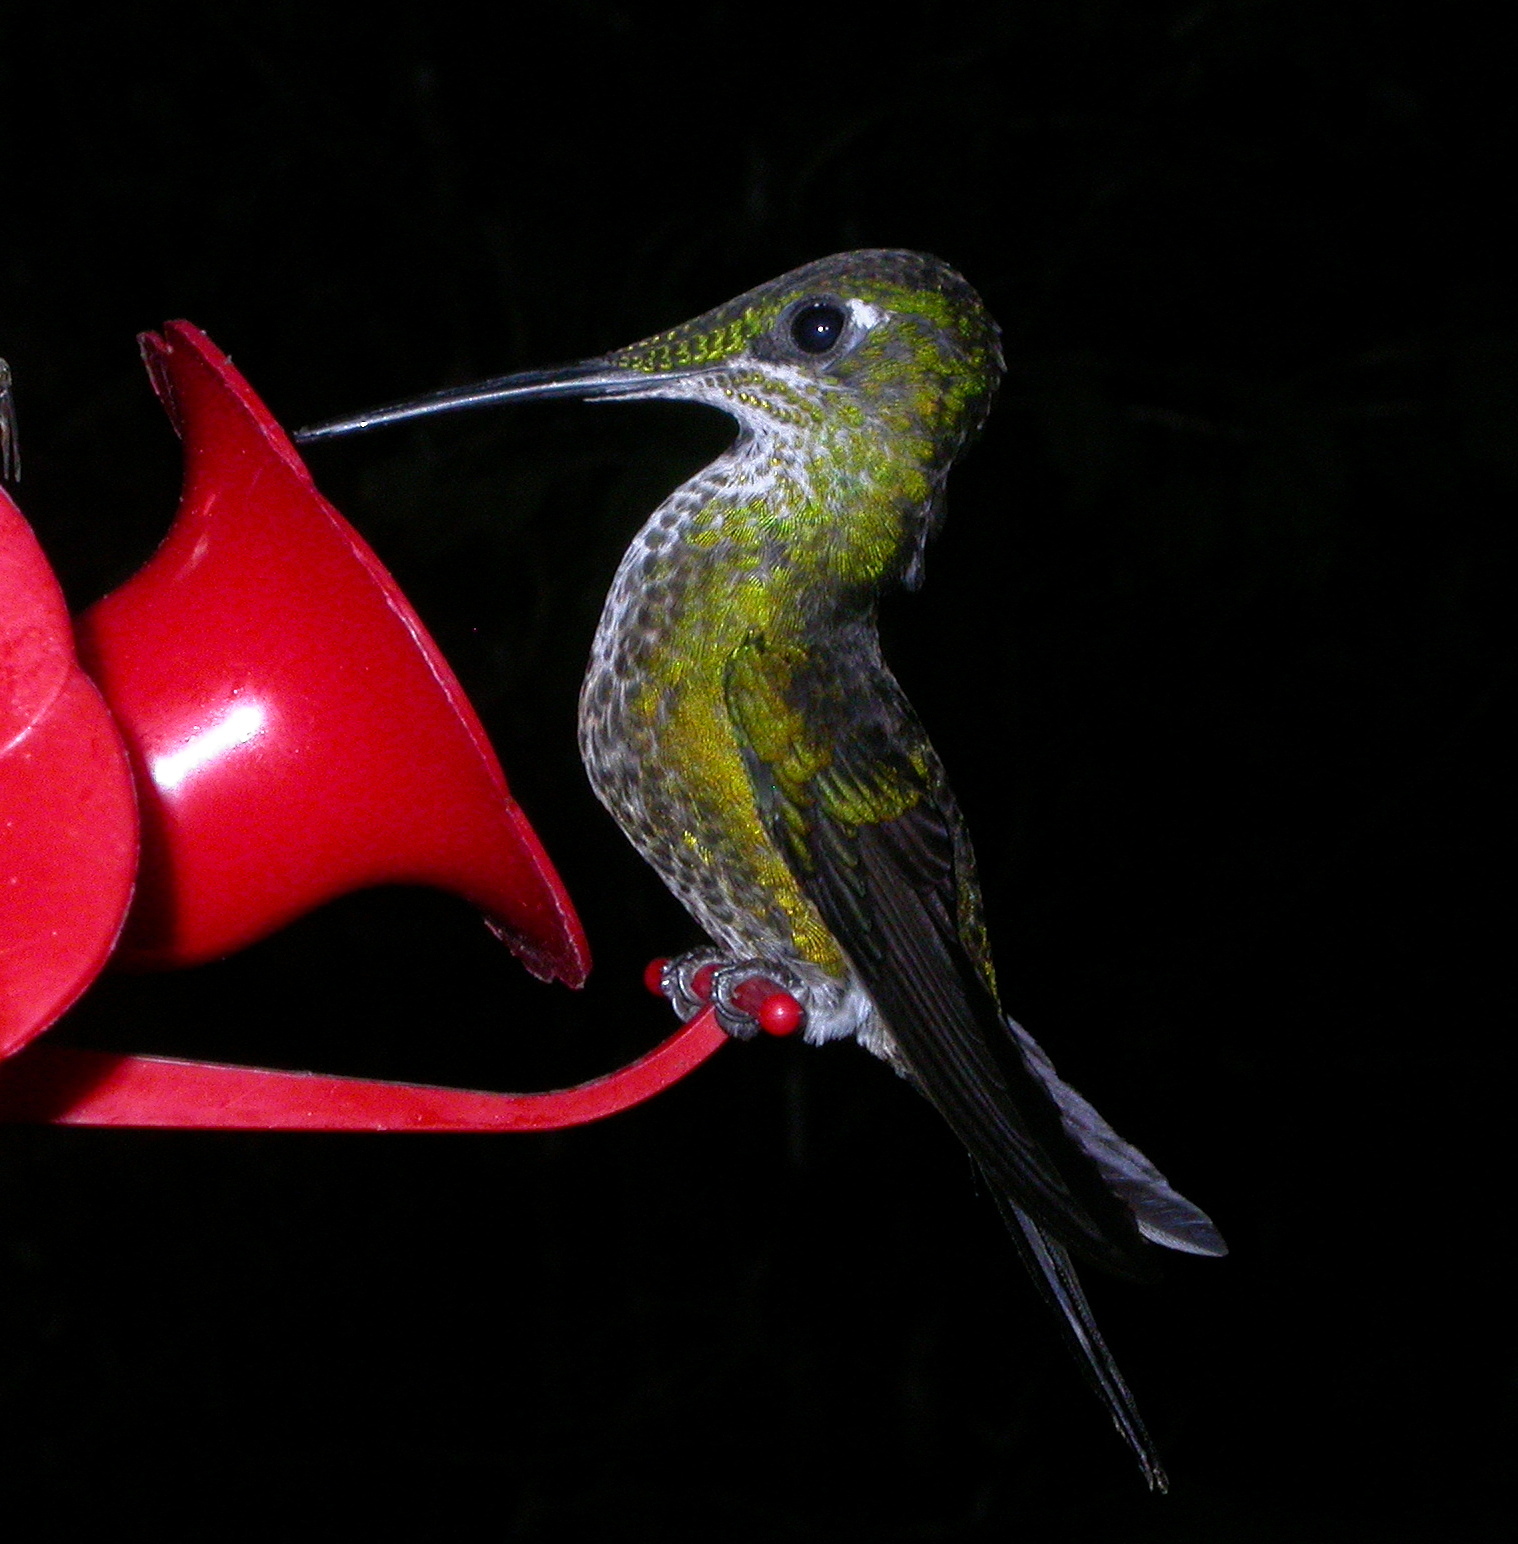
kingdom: Animalia
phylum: Chordata
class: Aves
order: Apodiformes
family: Trochilidae
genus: Heliodoxa
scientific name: Heliodoxa imperatrix
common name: Empress brilliant
